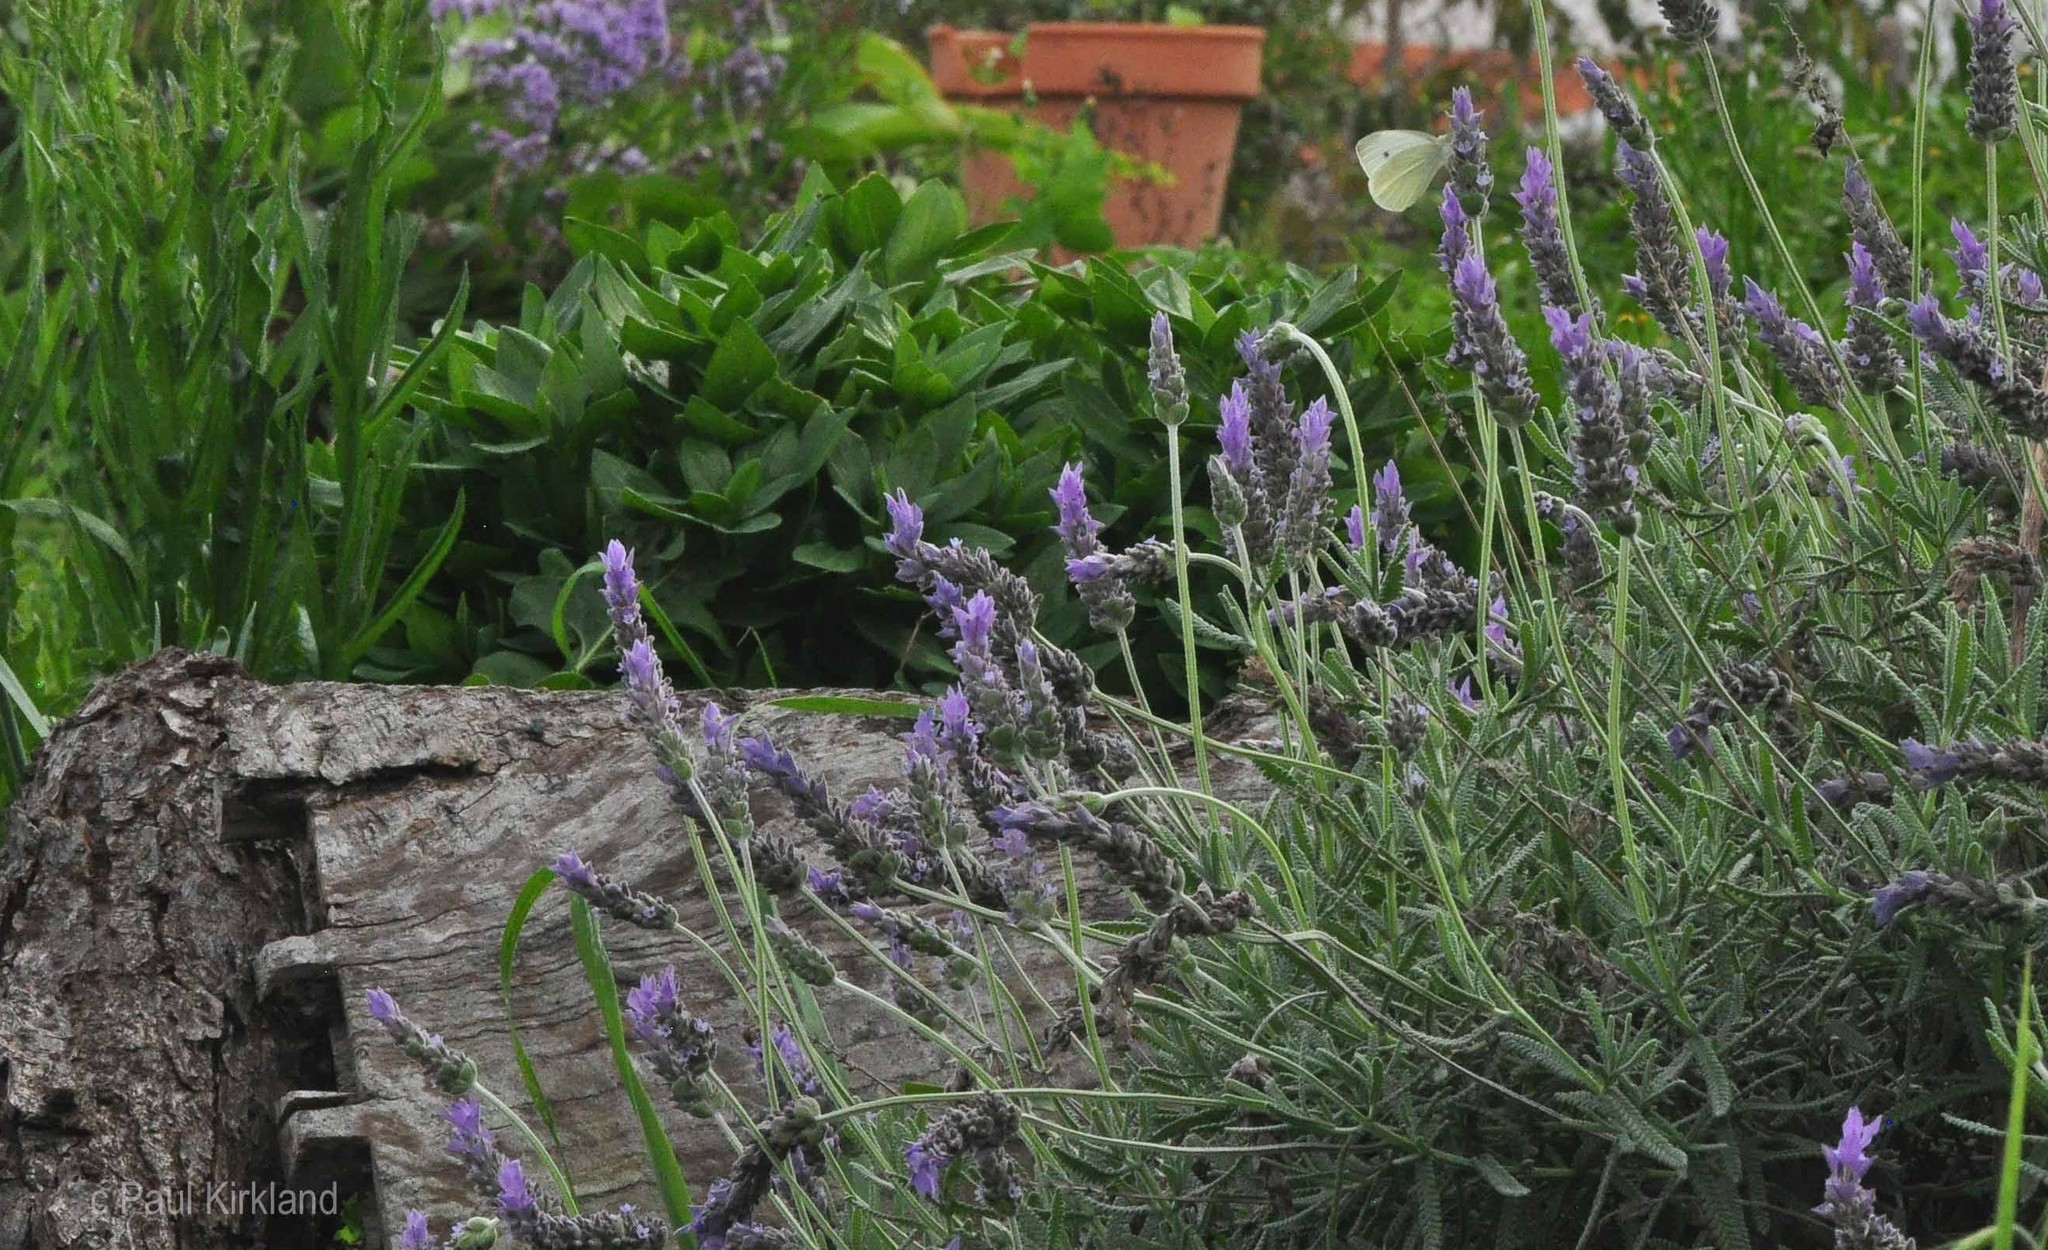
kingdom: Animalia
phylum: Arthropoda
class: Insecta
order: Lepidoptera
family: Pieridae
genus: Pieris
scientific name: Pieris rapae
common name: Small white
